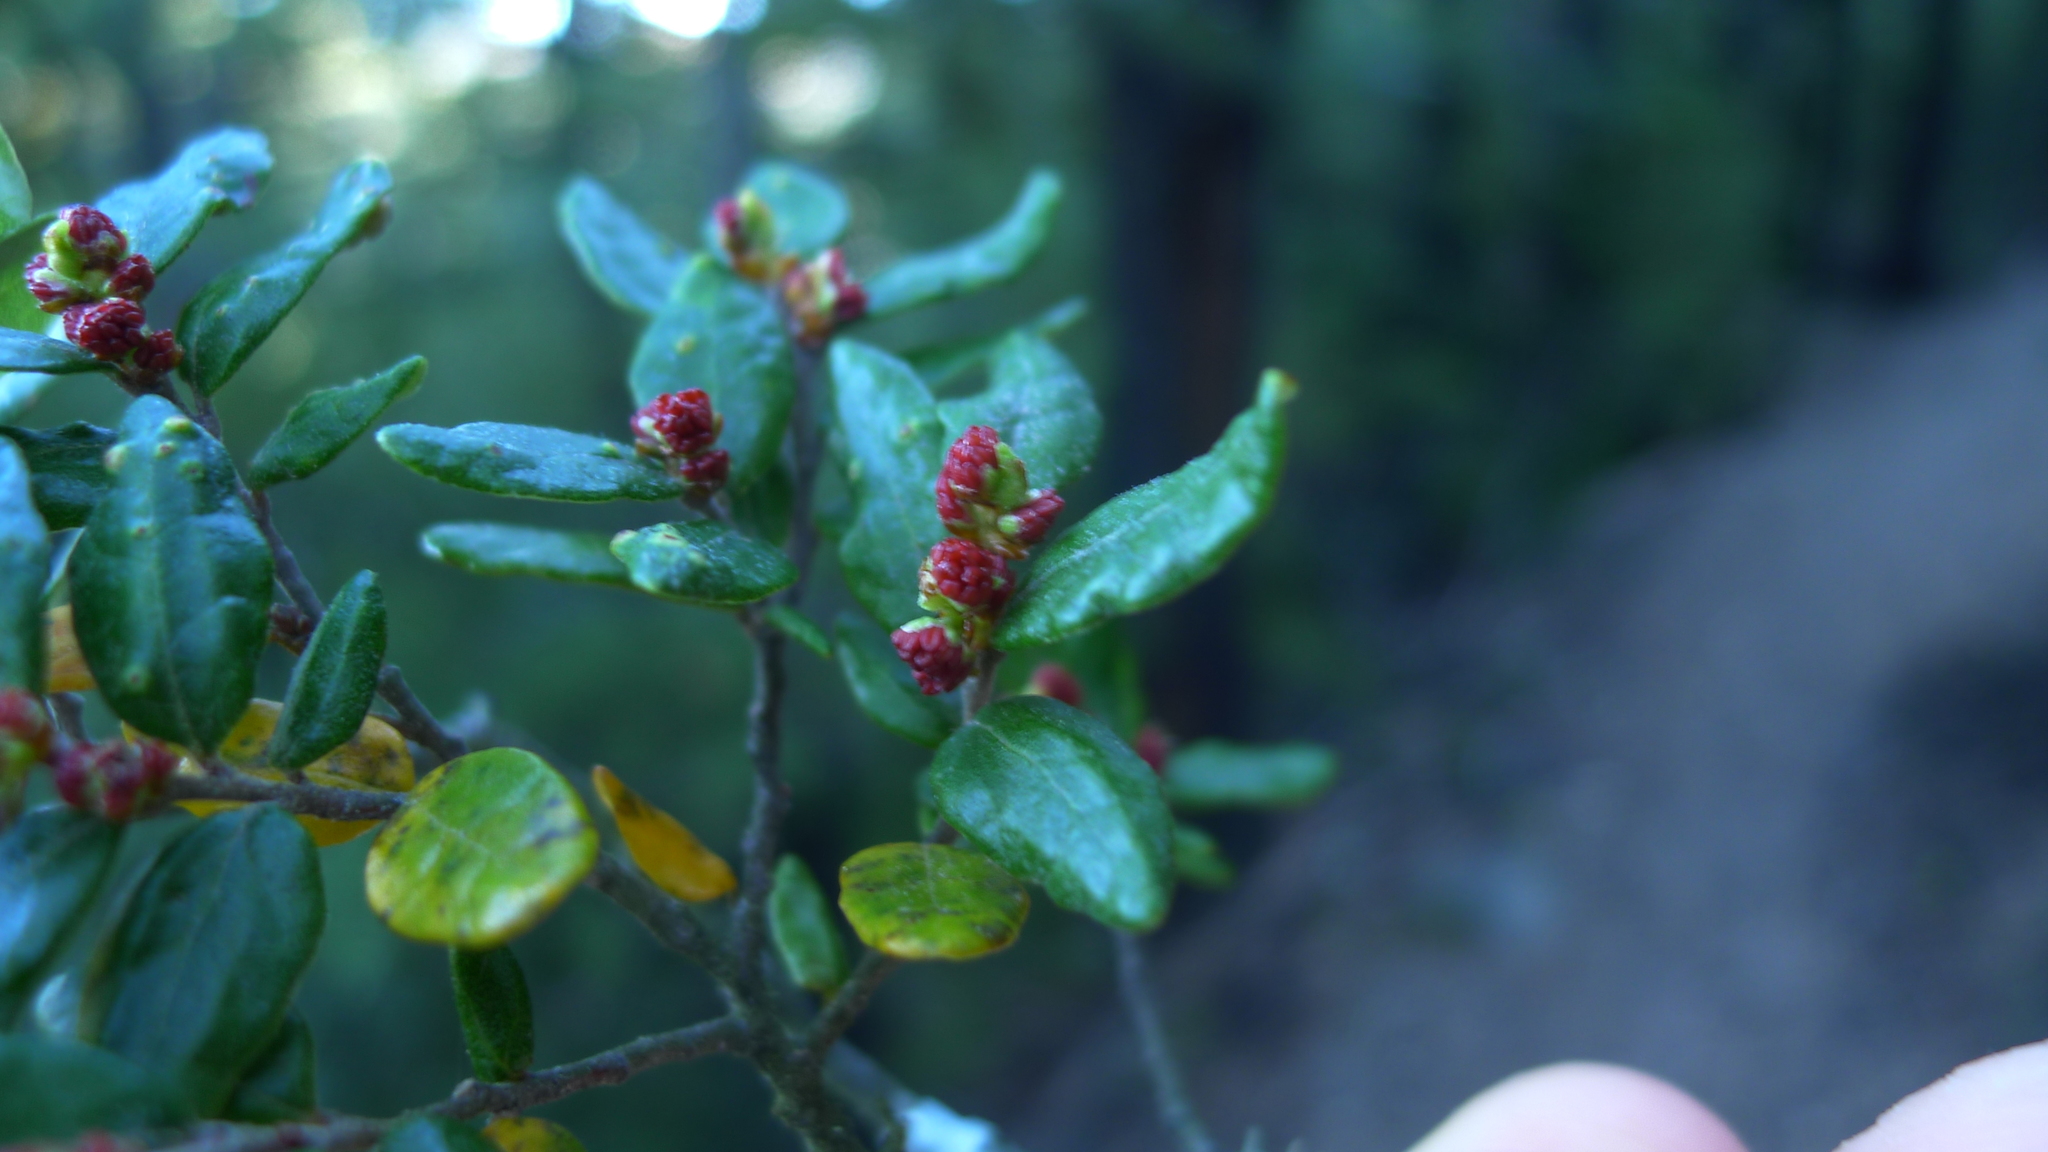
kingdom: Plantae
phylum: Tracheophyta
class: Magnoliopsida
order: Fagales
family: Nothofagaceae
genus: Nothofagus
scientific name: Nothofagus cliffortioides
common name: Mountain beech
